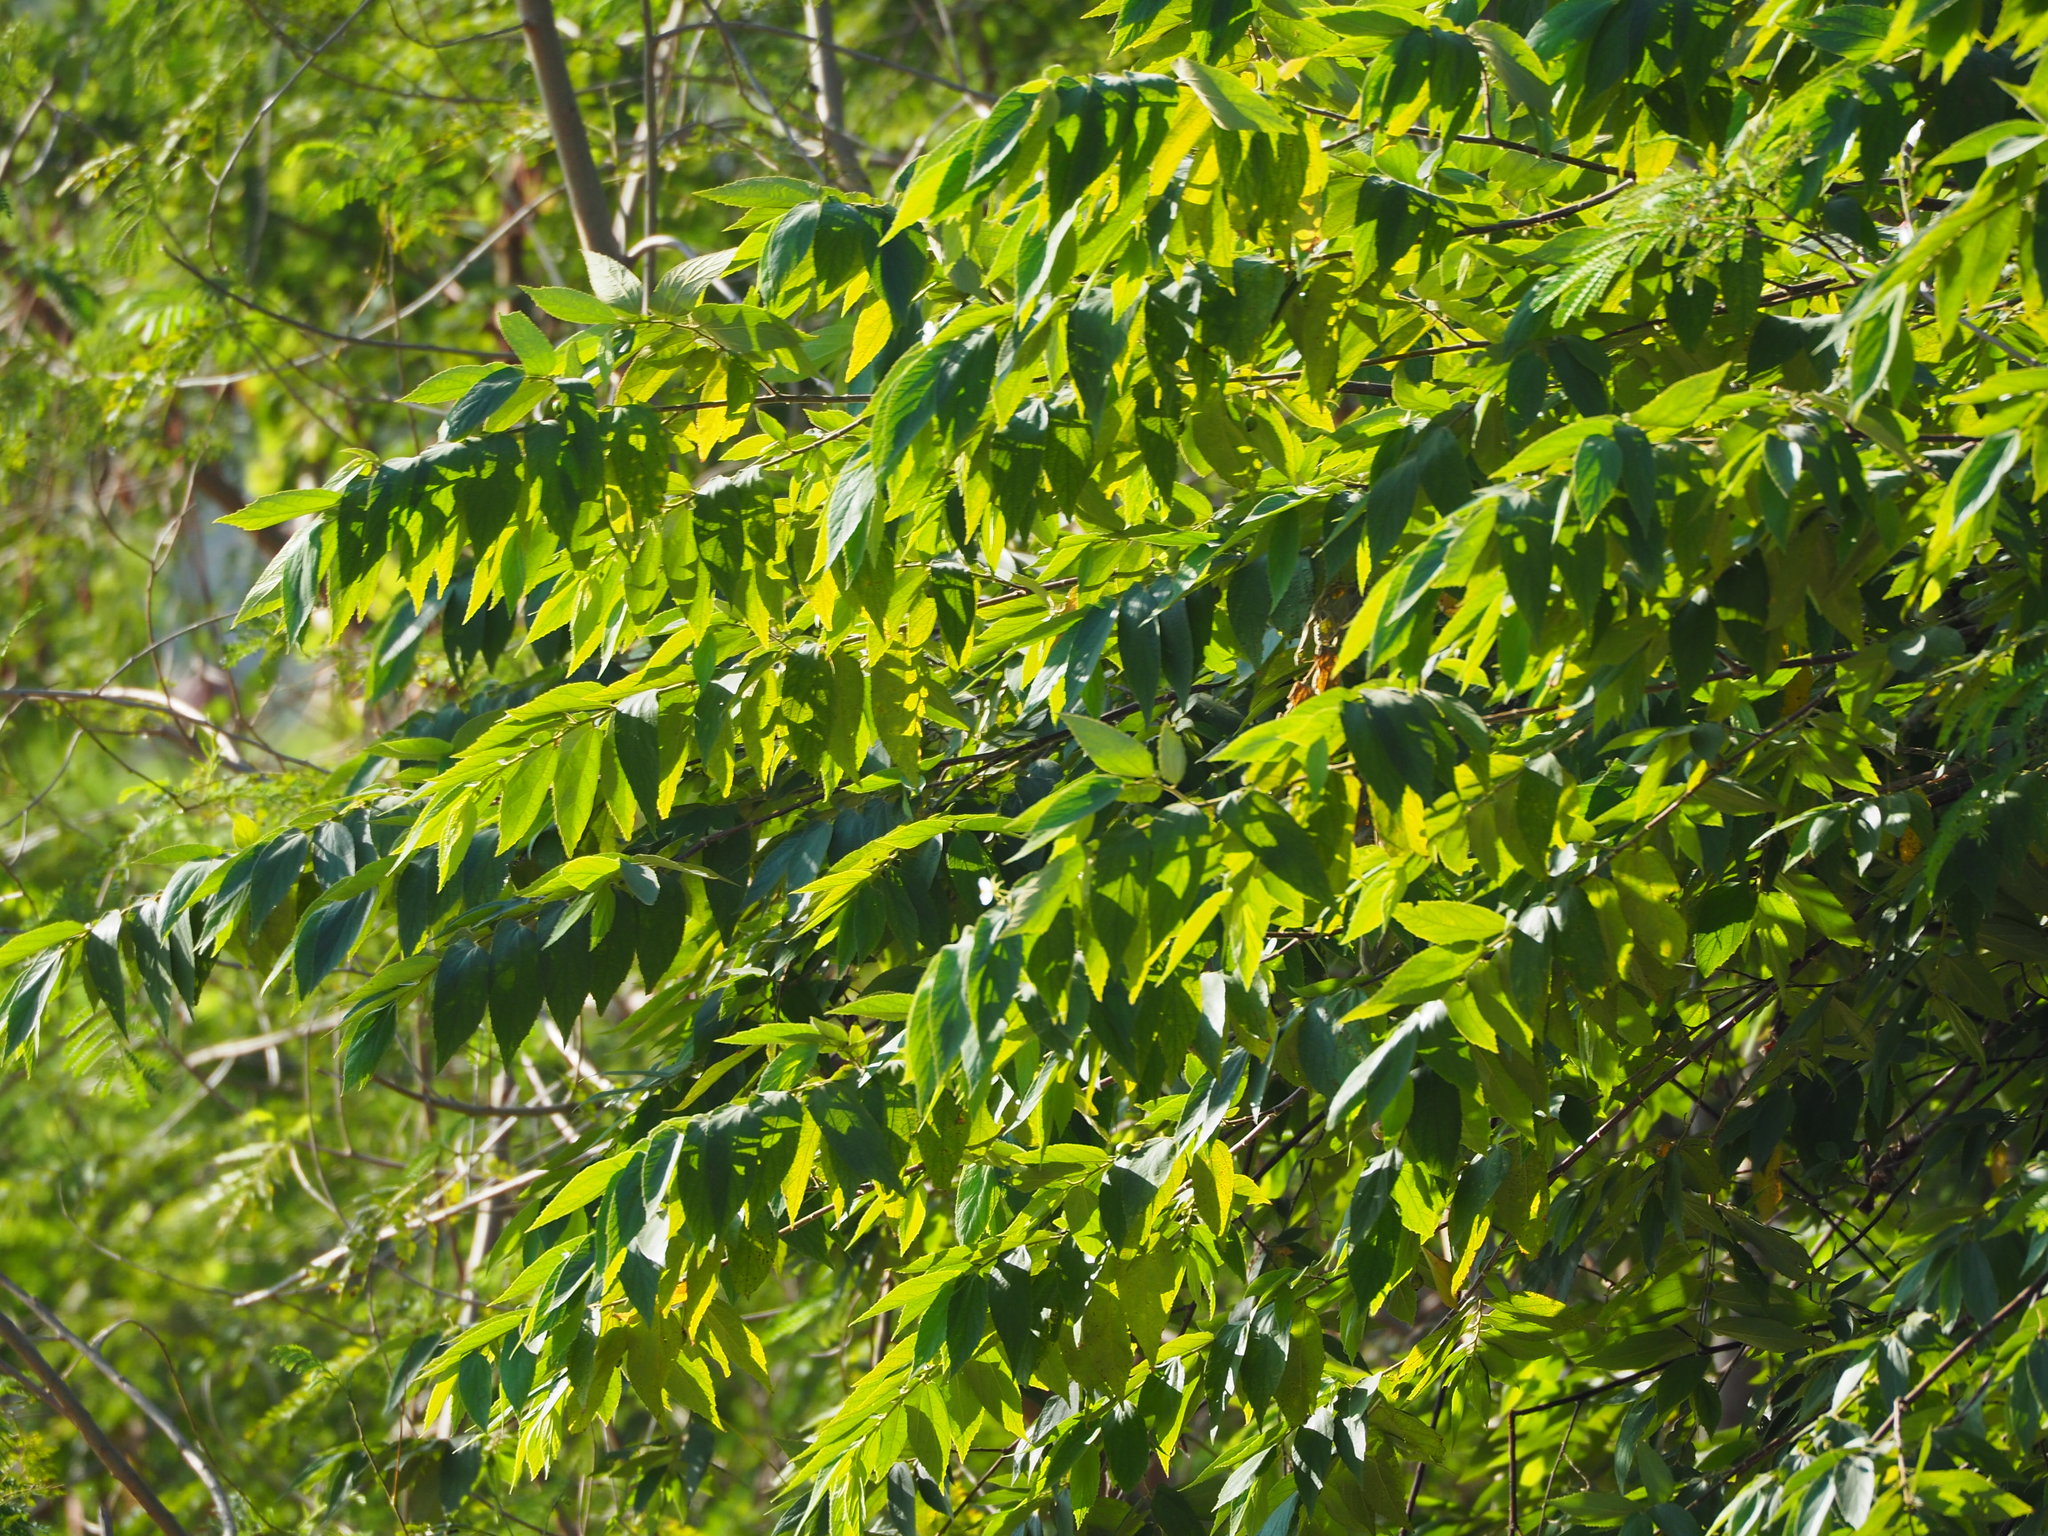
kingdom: Plantae
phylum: Tracheophyta
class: Magnoliopsida
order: Rosales
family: Cannabaceae
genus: Trema
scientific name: Trema orientale
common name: Indian charcoal tree
